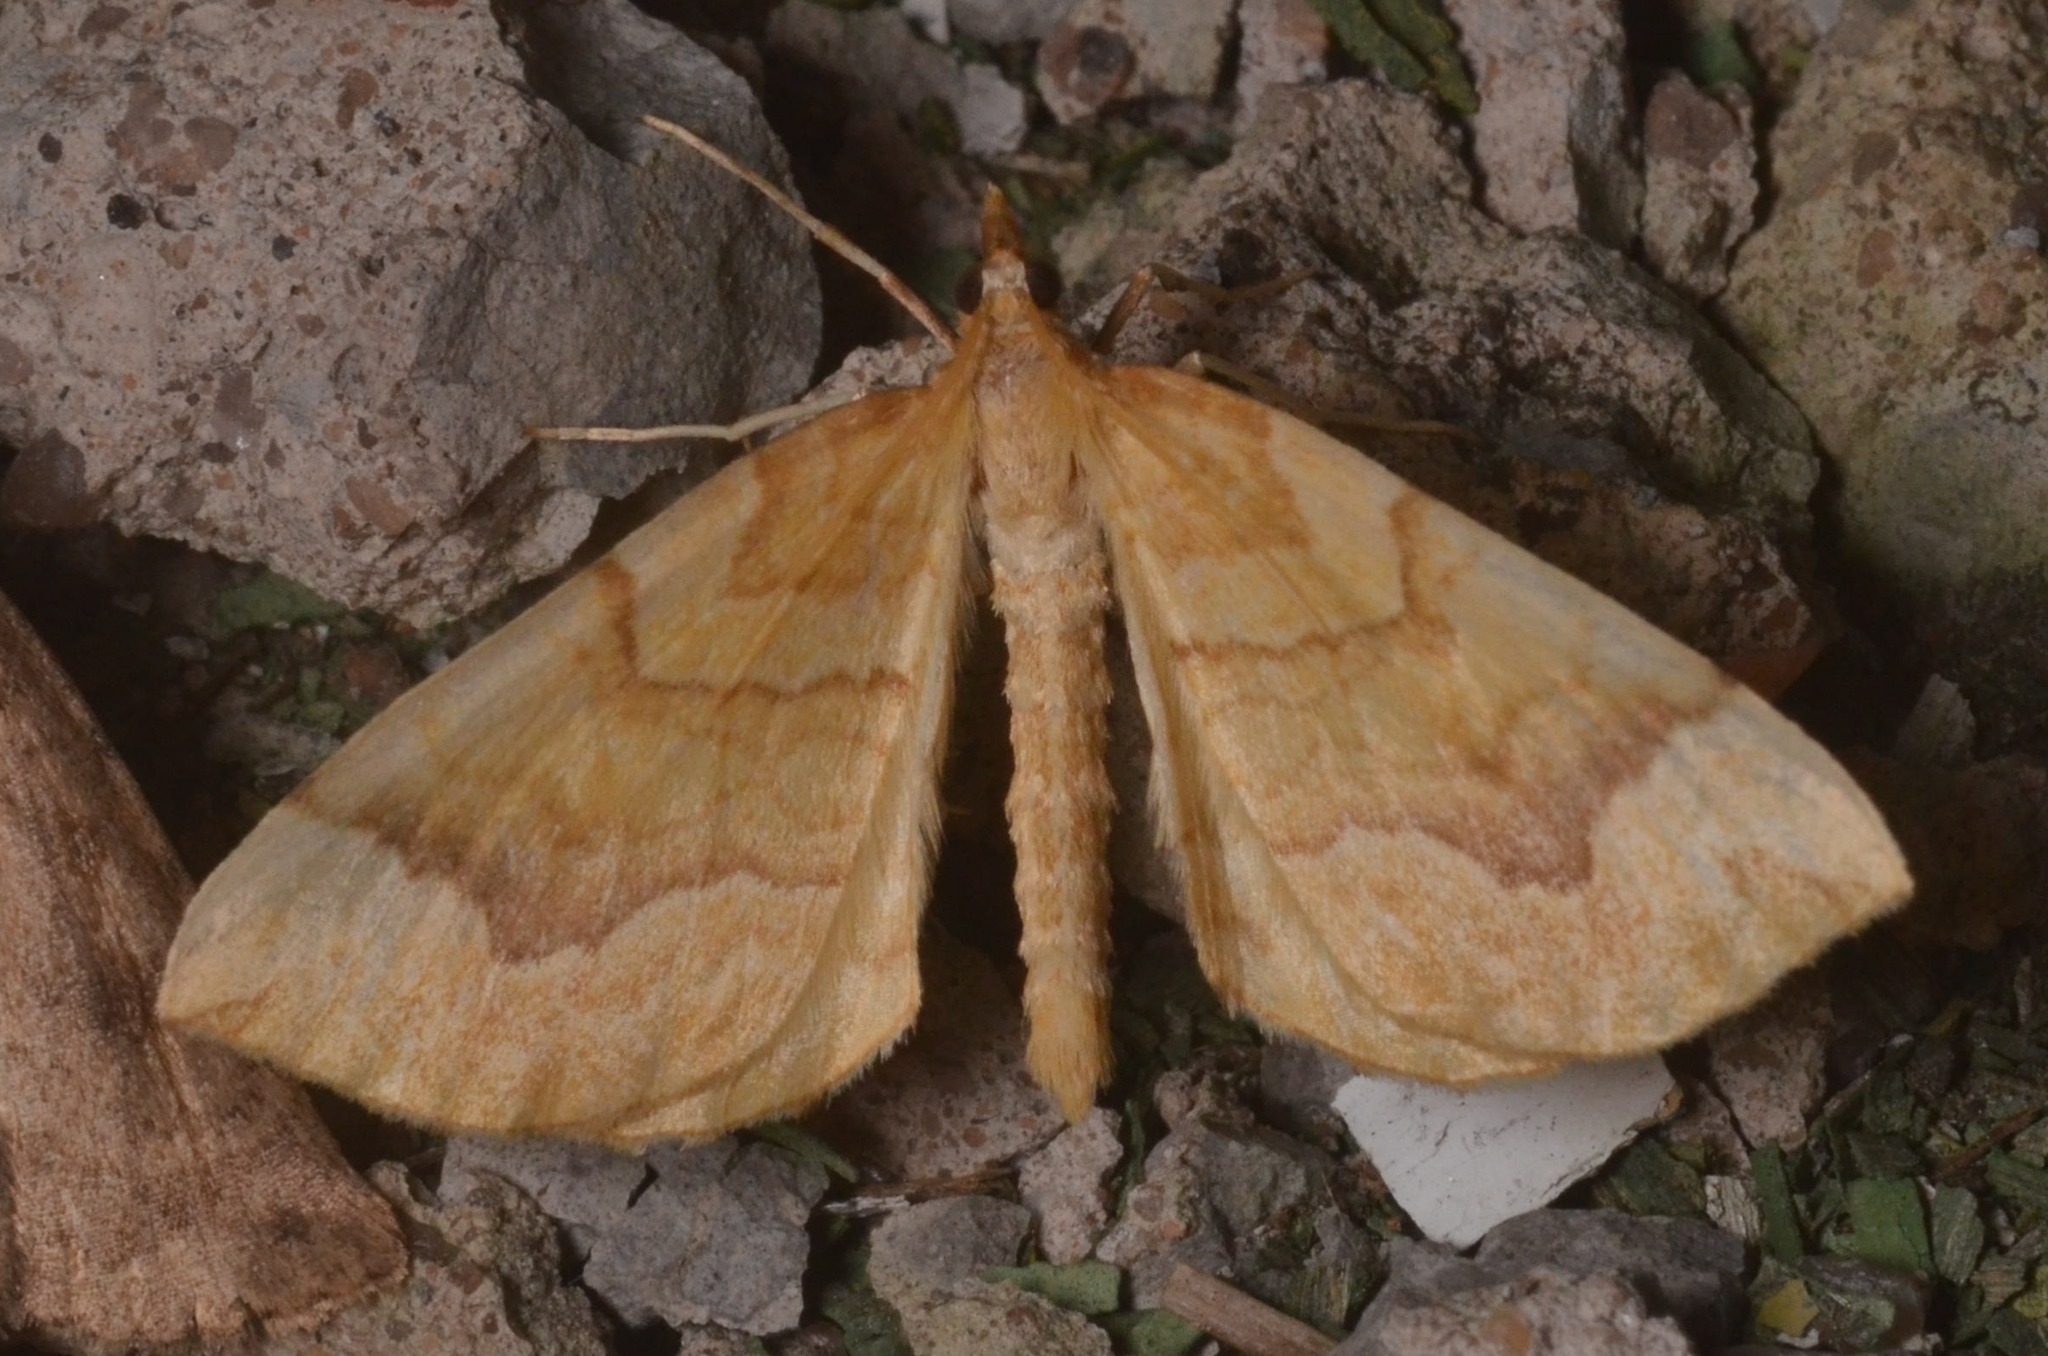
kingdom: Animalia
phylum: Arthropoda
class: Insecta
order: Lepidoptera
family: Geometridae
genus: Eulithis
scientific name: Eulithis mellinata
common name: Spinach
